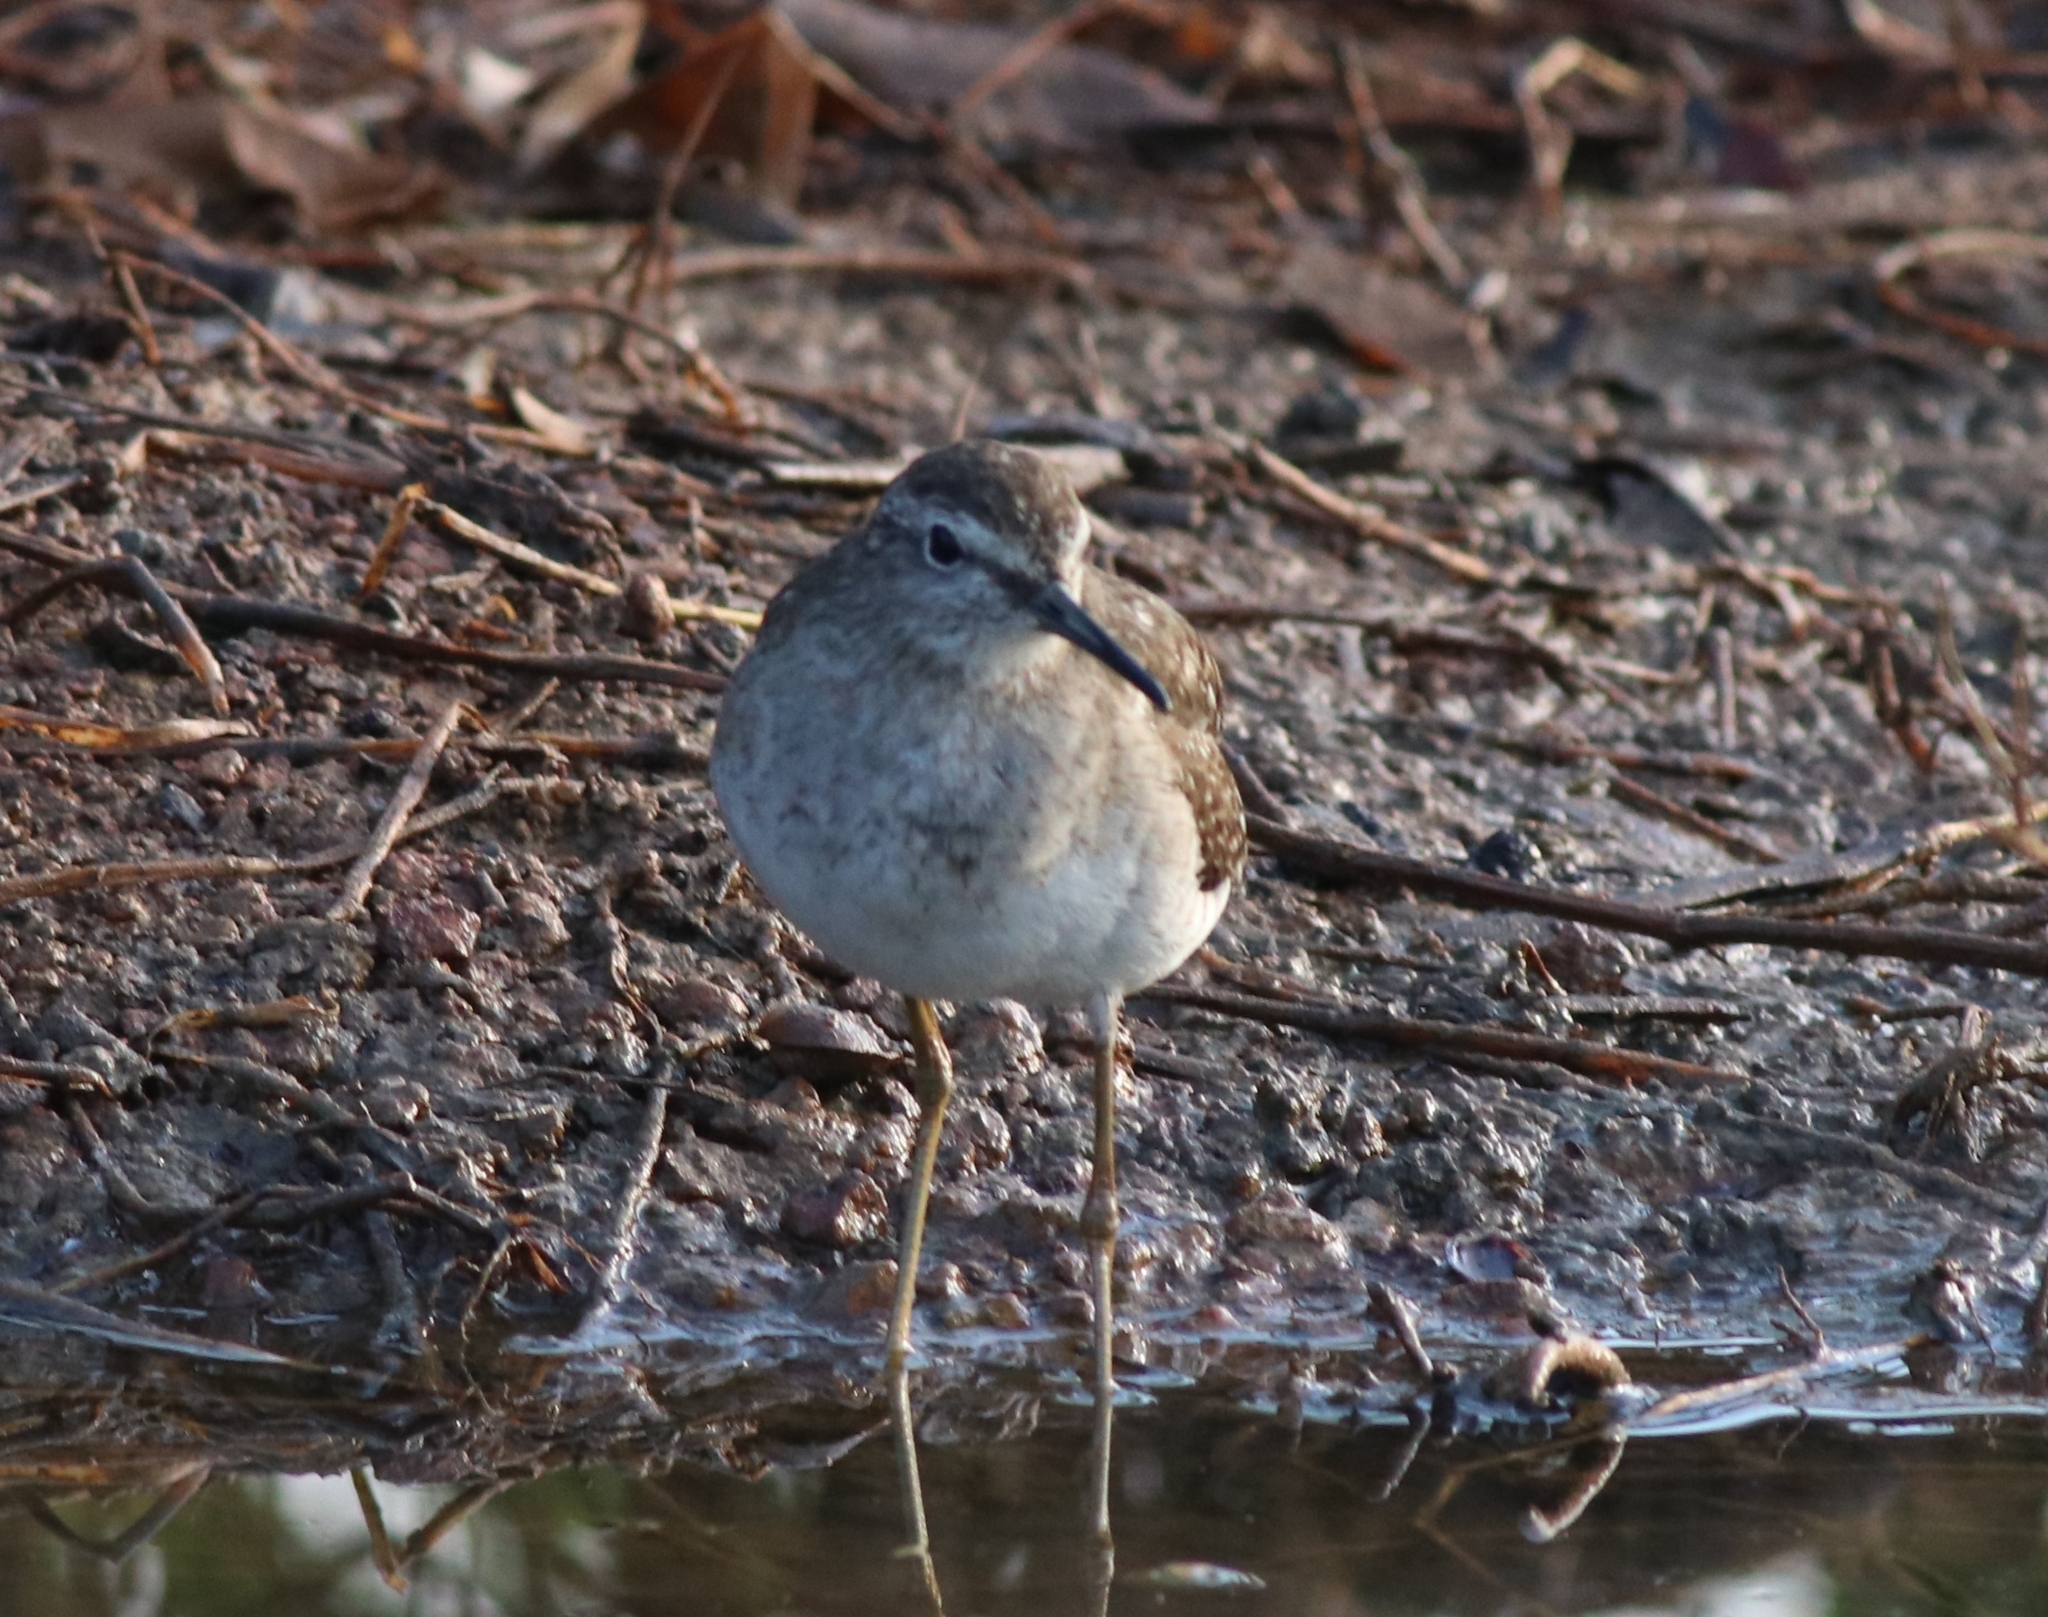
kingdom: Animalia
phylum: Chordata
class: Aves
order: Charadriiformes
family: Scolopacidae
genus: Tringa
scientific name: Tringa glareola
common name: Wood sandpiper
